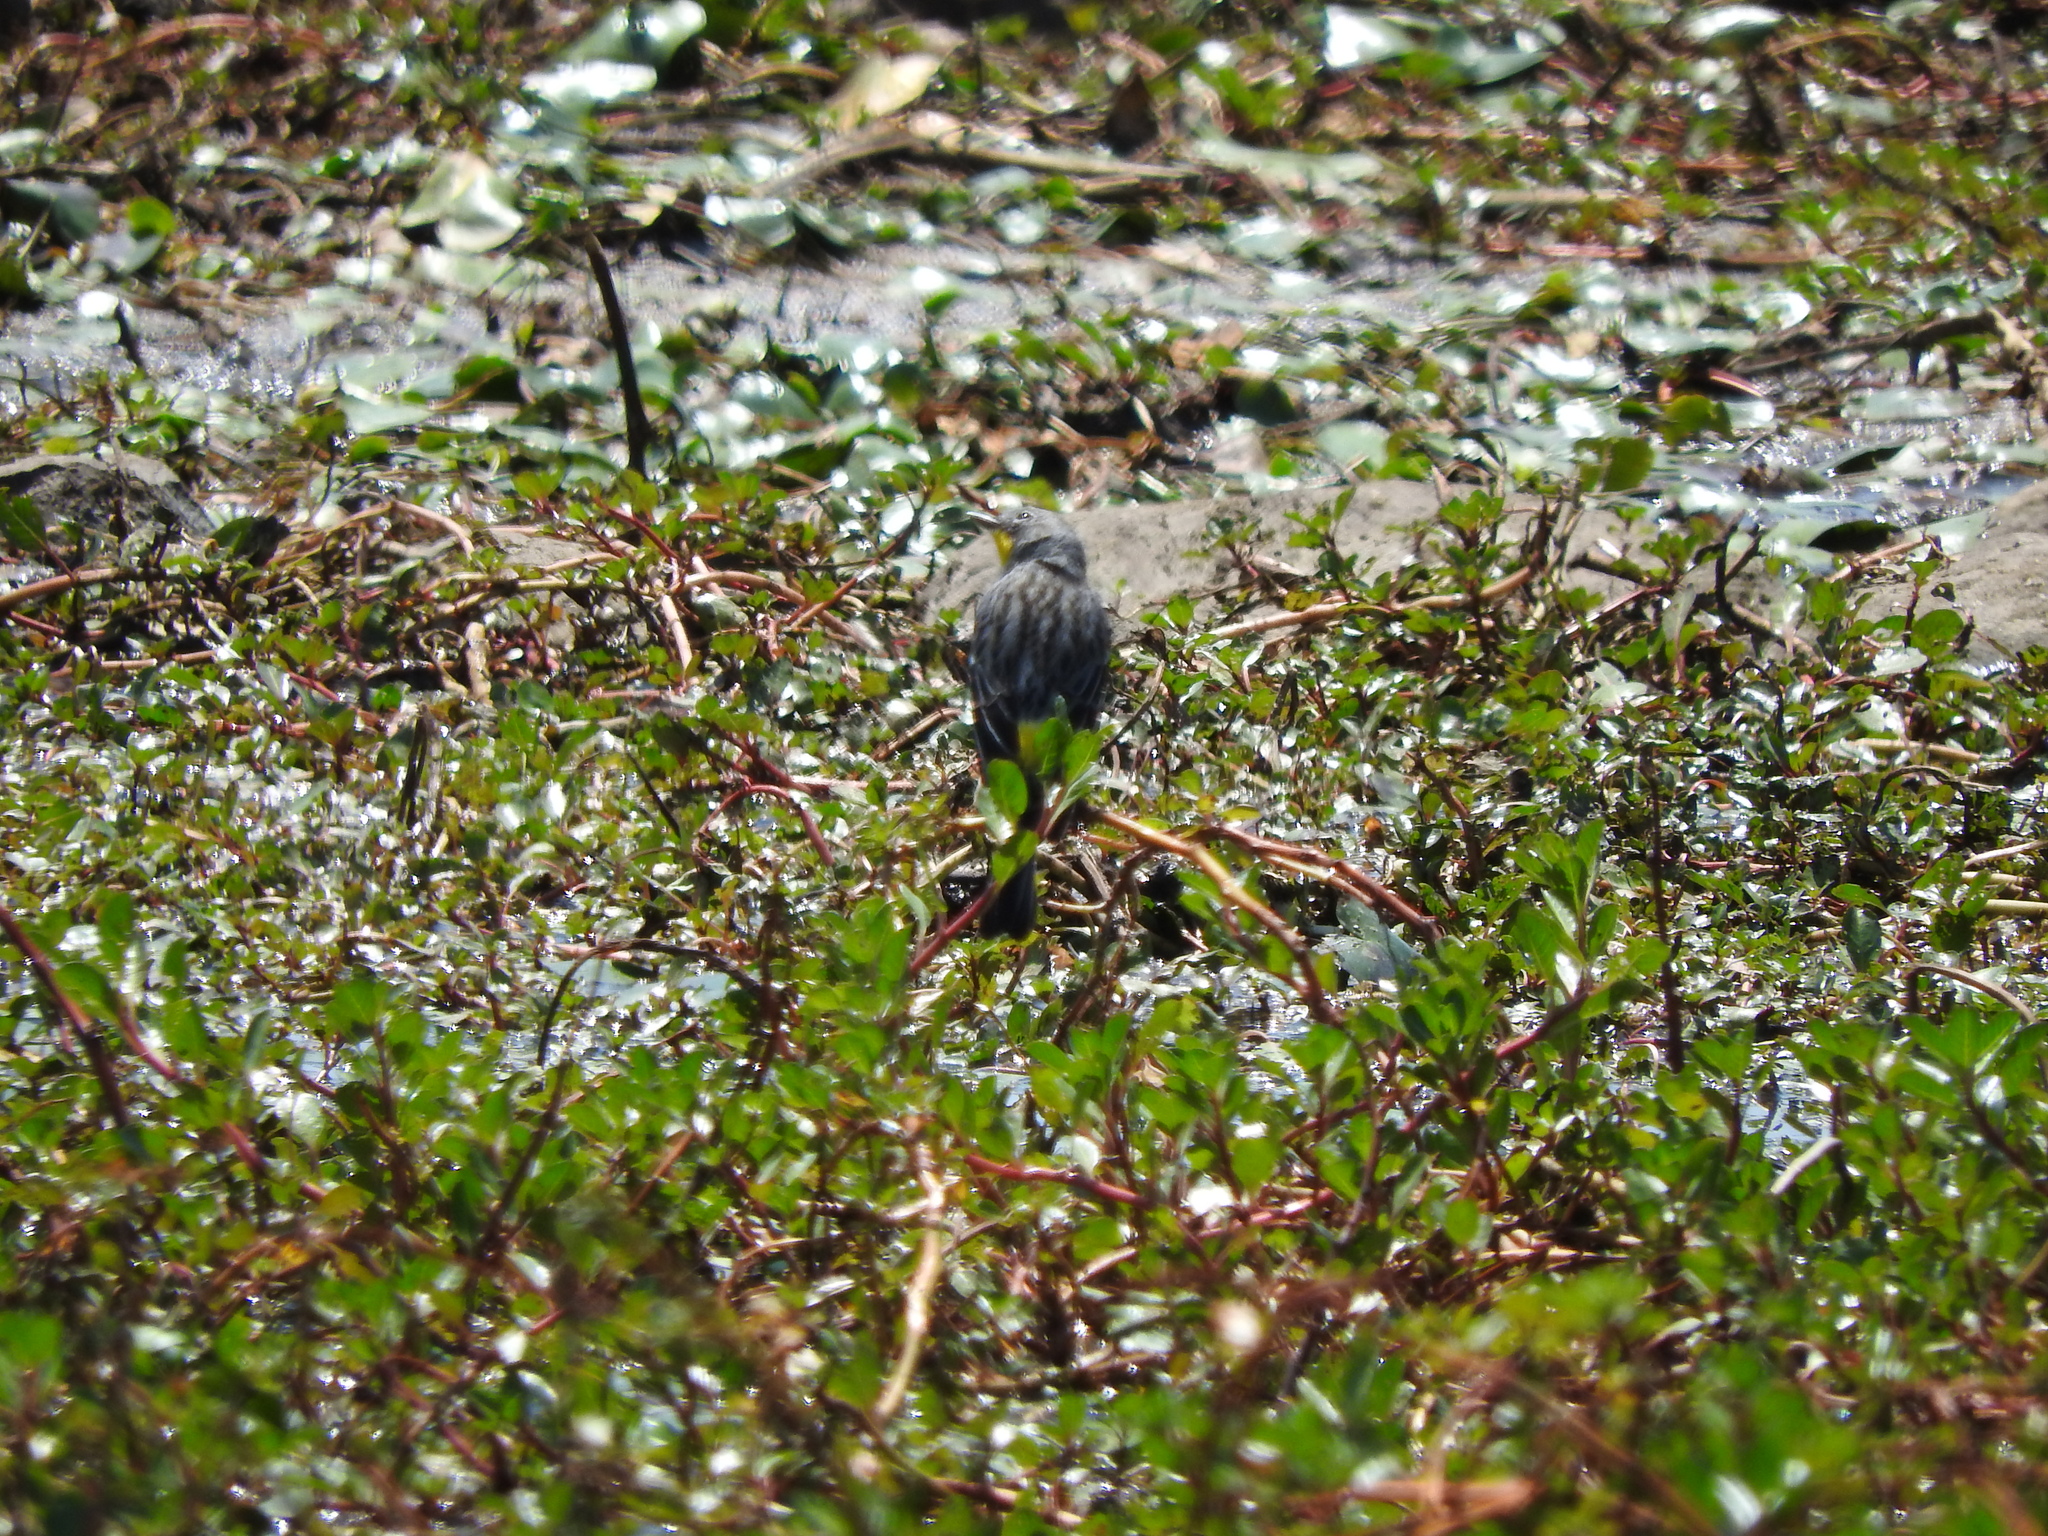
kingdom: Animalia
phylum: Chordata
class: Aves
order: Passeriformes
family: Parulidae
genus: Setophaga
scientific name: Setophaga auduboni
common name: Audubon's warbler
